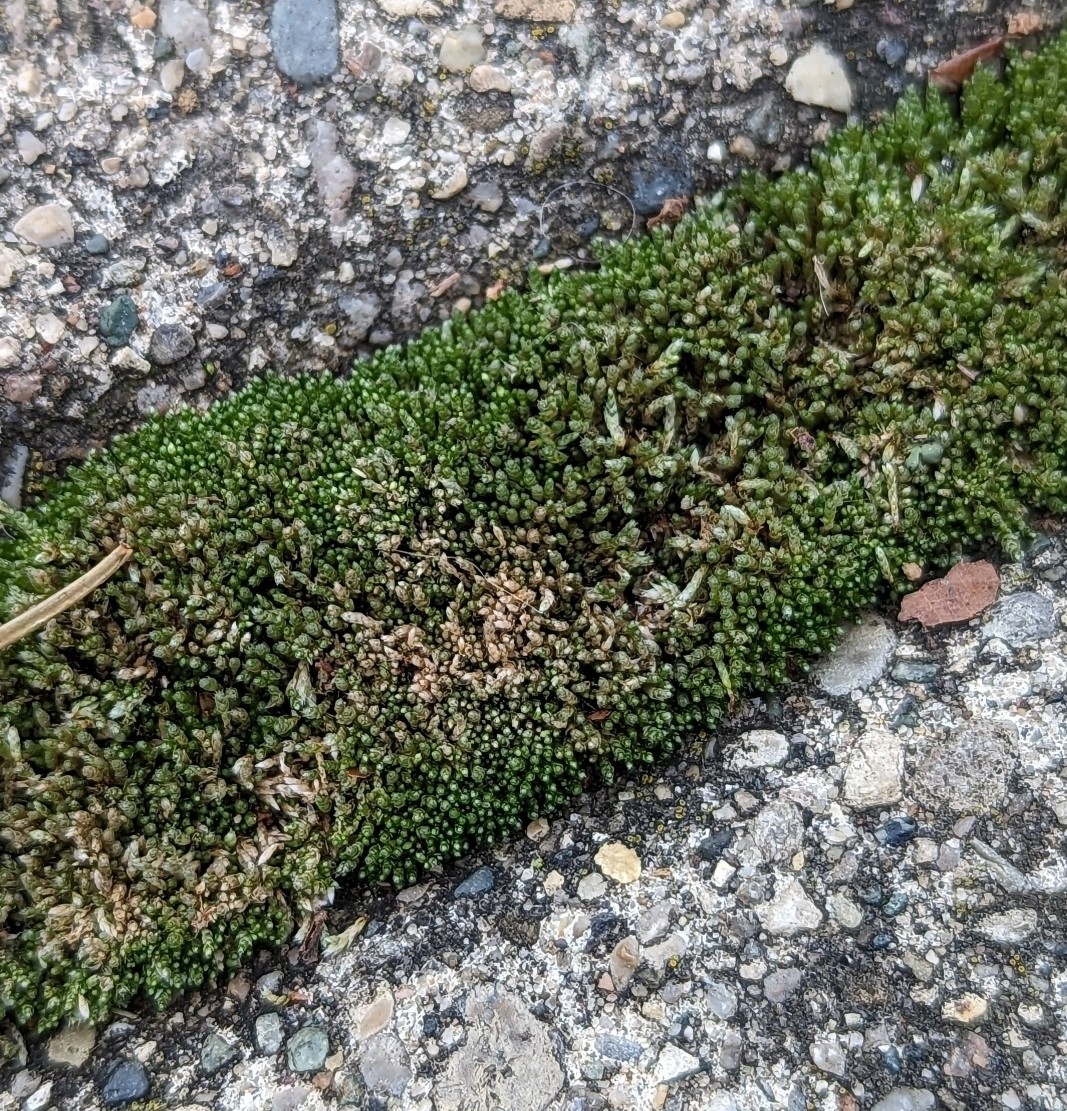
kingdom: Plantae
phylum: Bryophyta
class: Bryopsida
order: Bryales
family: Bryaceae
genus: Bryum
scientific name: Bryum argenteum
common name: Silver-moss
